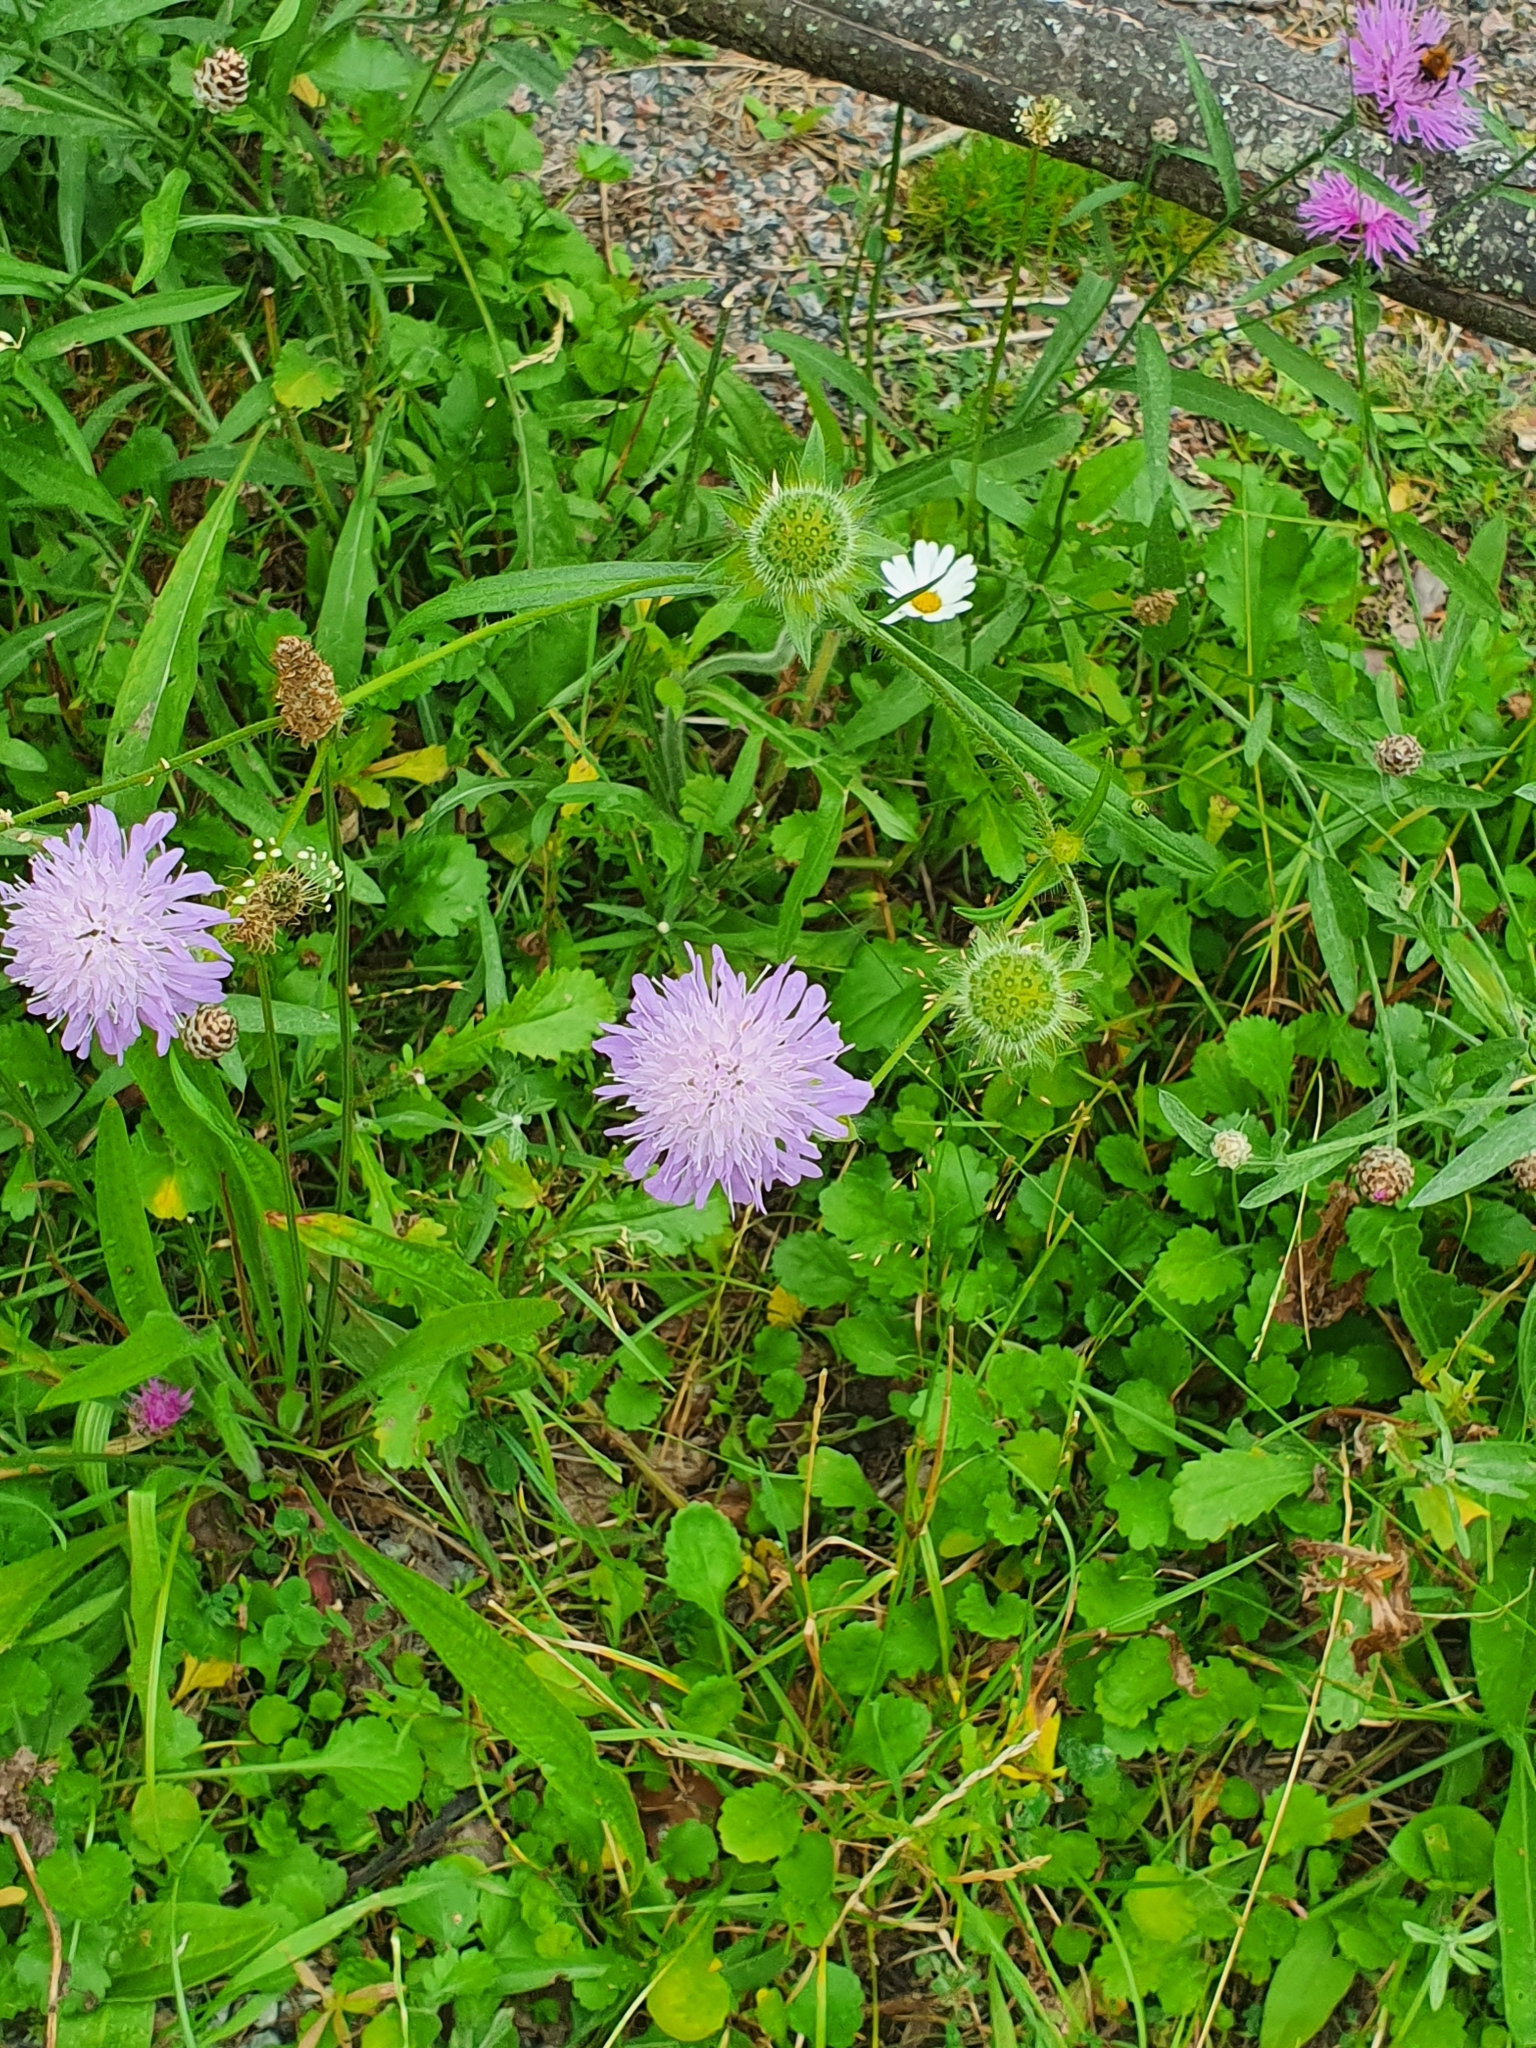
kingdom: Plantae
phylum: Tracheophyta
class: Magnoliopsida
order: Dipsacales
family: Caprifoliaceae
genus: Knautia
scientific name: Knautia arvensis
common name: Field scabiosa
